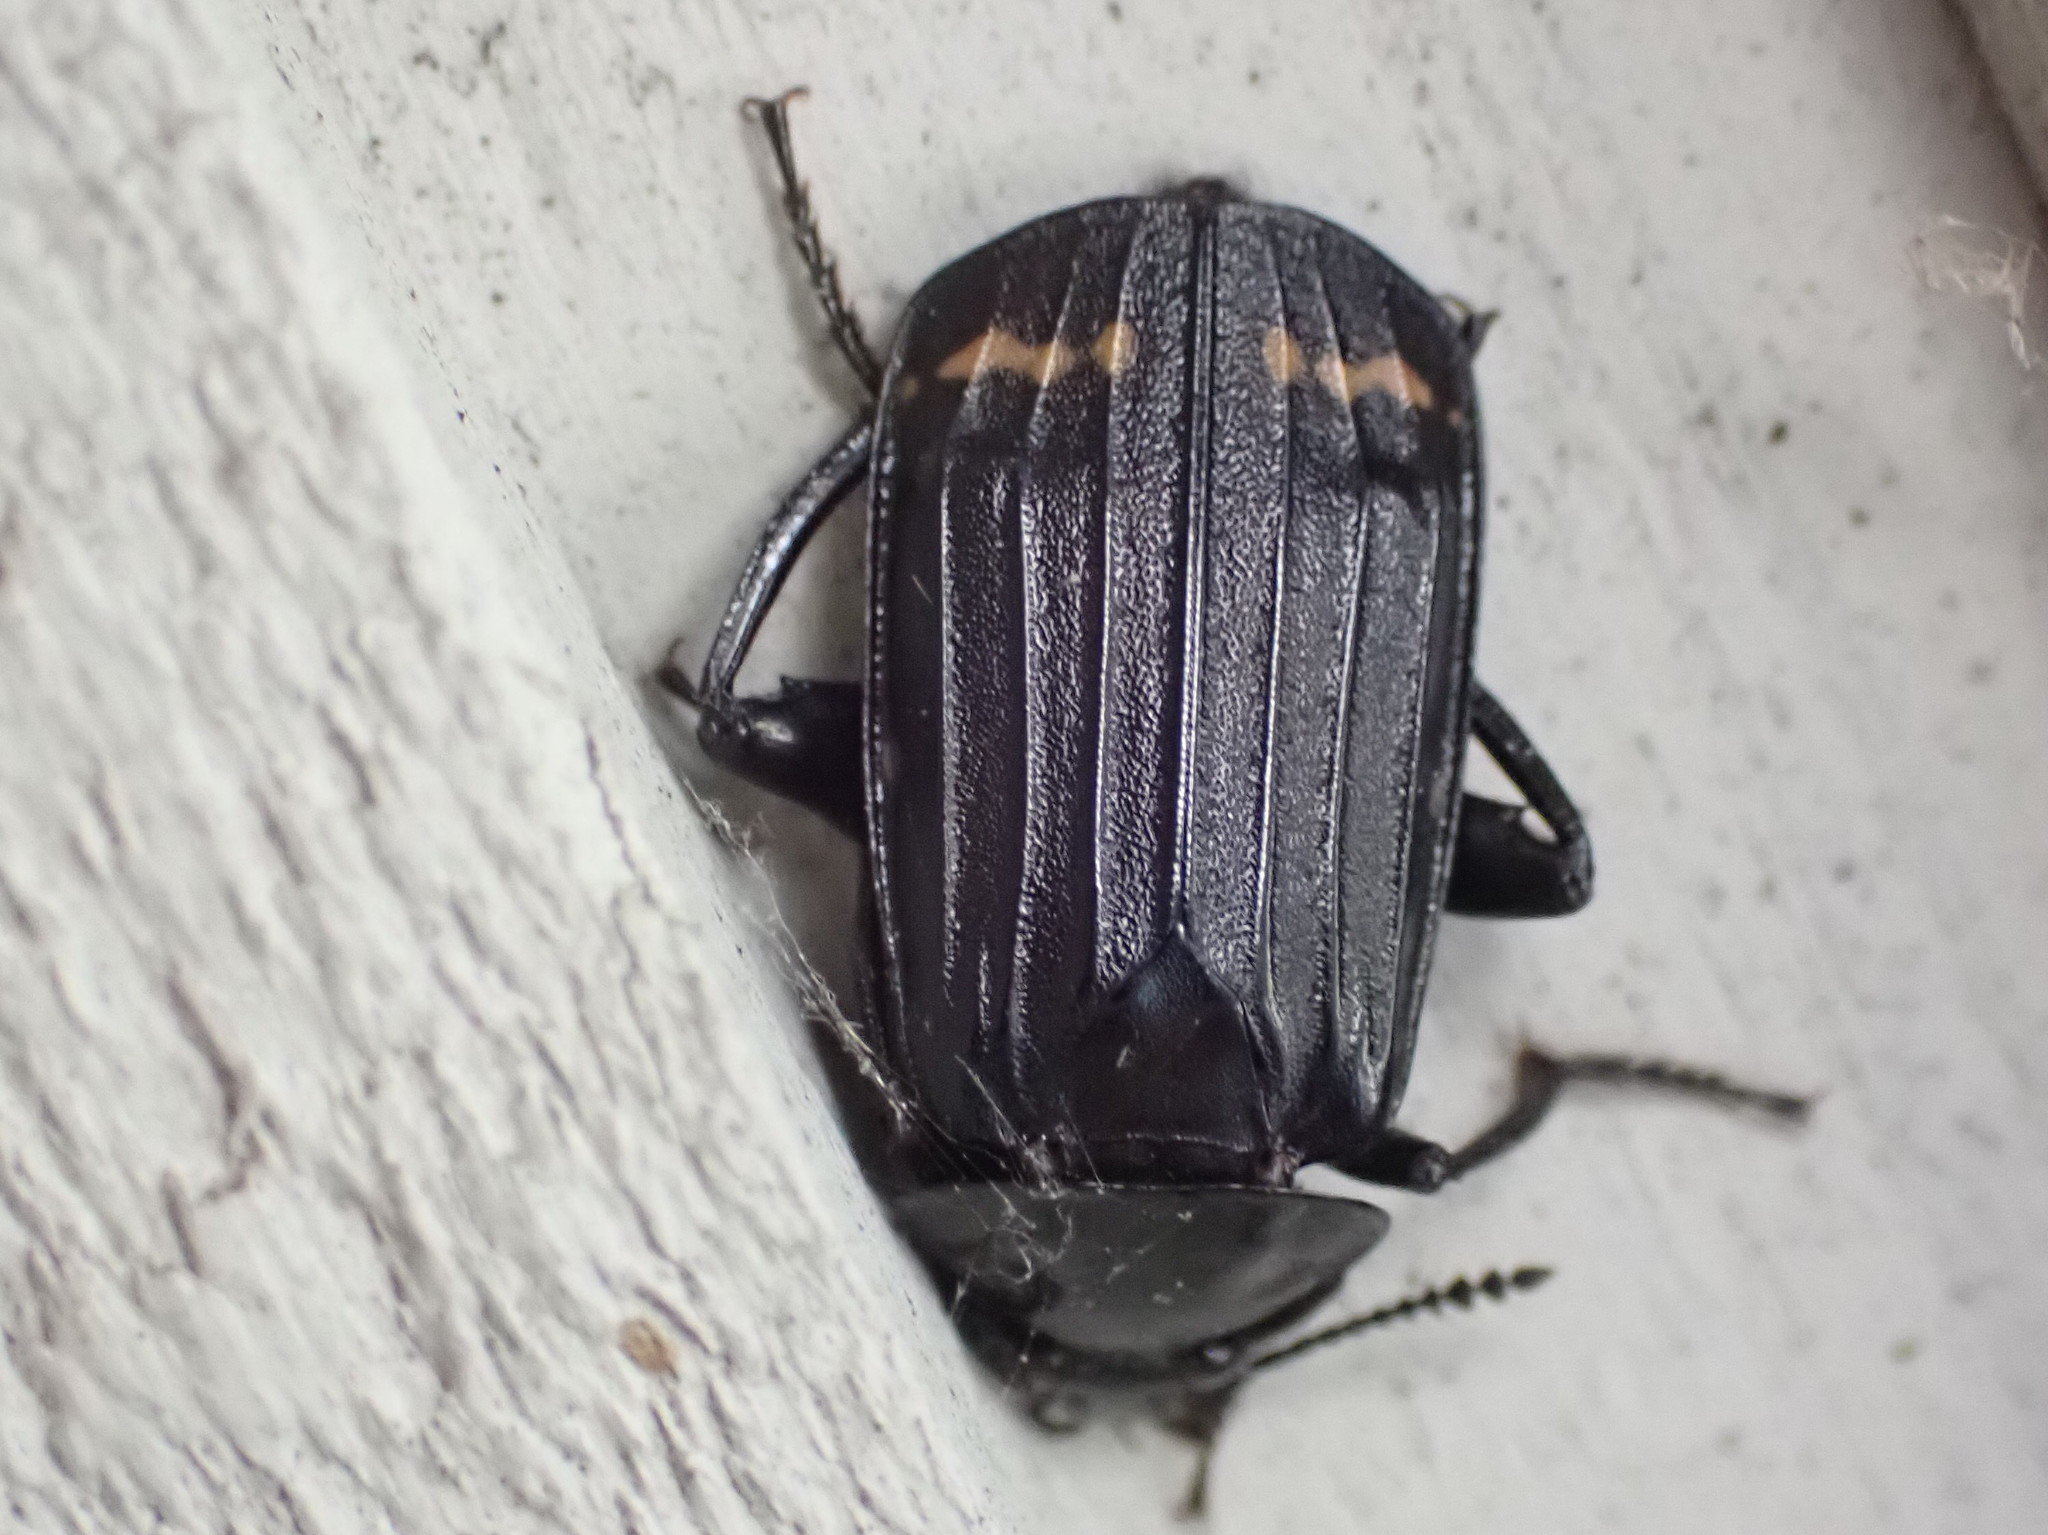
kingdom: Animalia
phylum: Arthropoda
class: Insecta
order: Coleoptera
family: Staphylinidae
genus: Necrodes
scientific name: Necrodes surinamensis
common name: Red-lined carrion beetle
